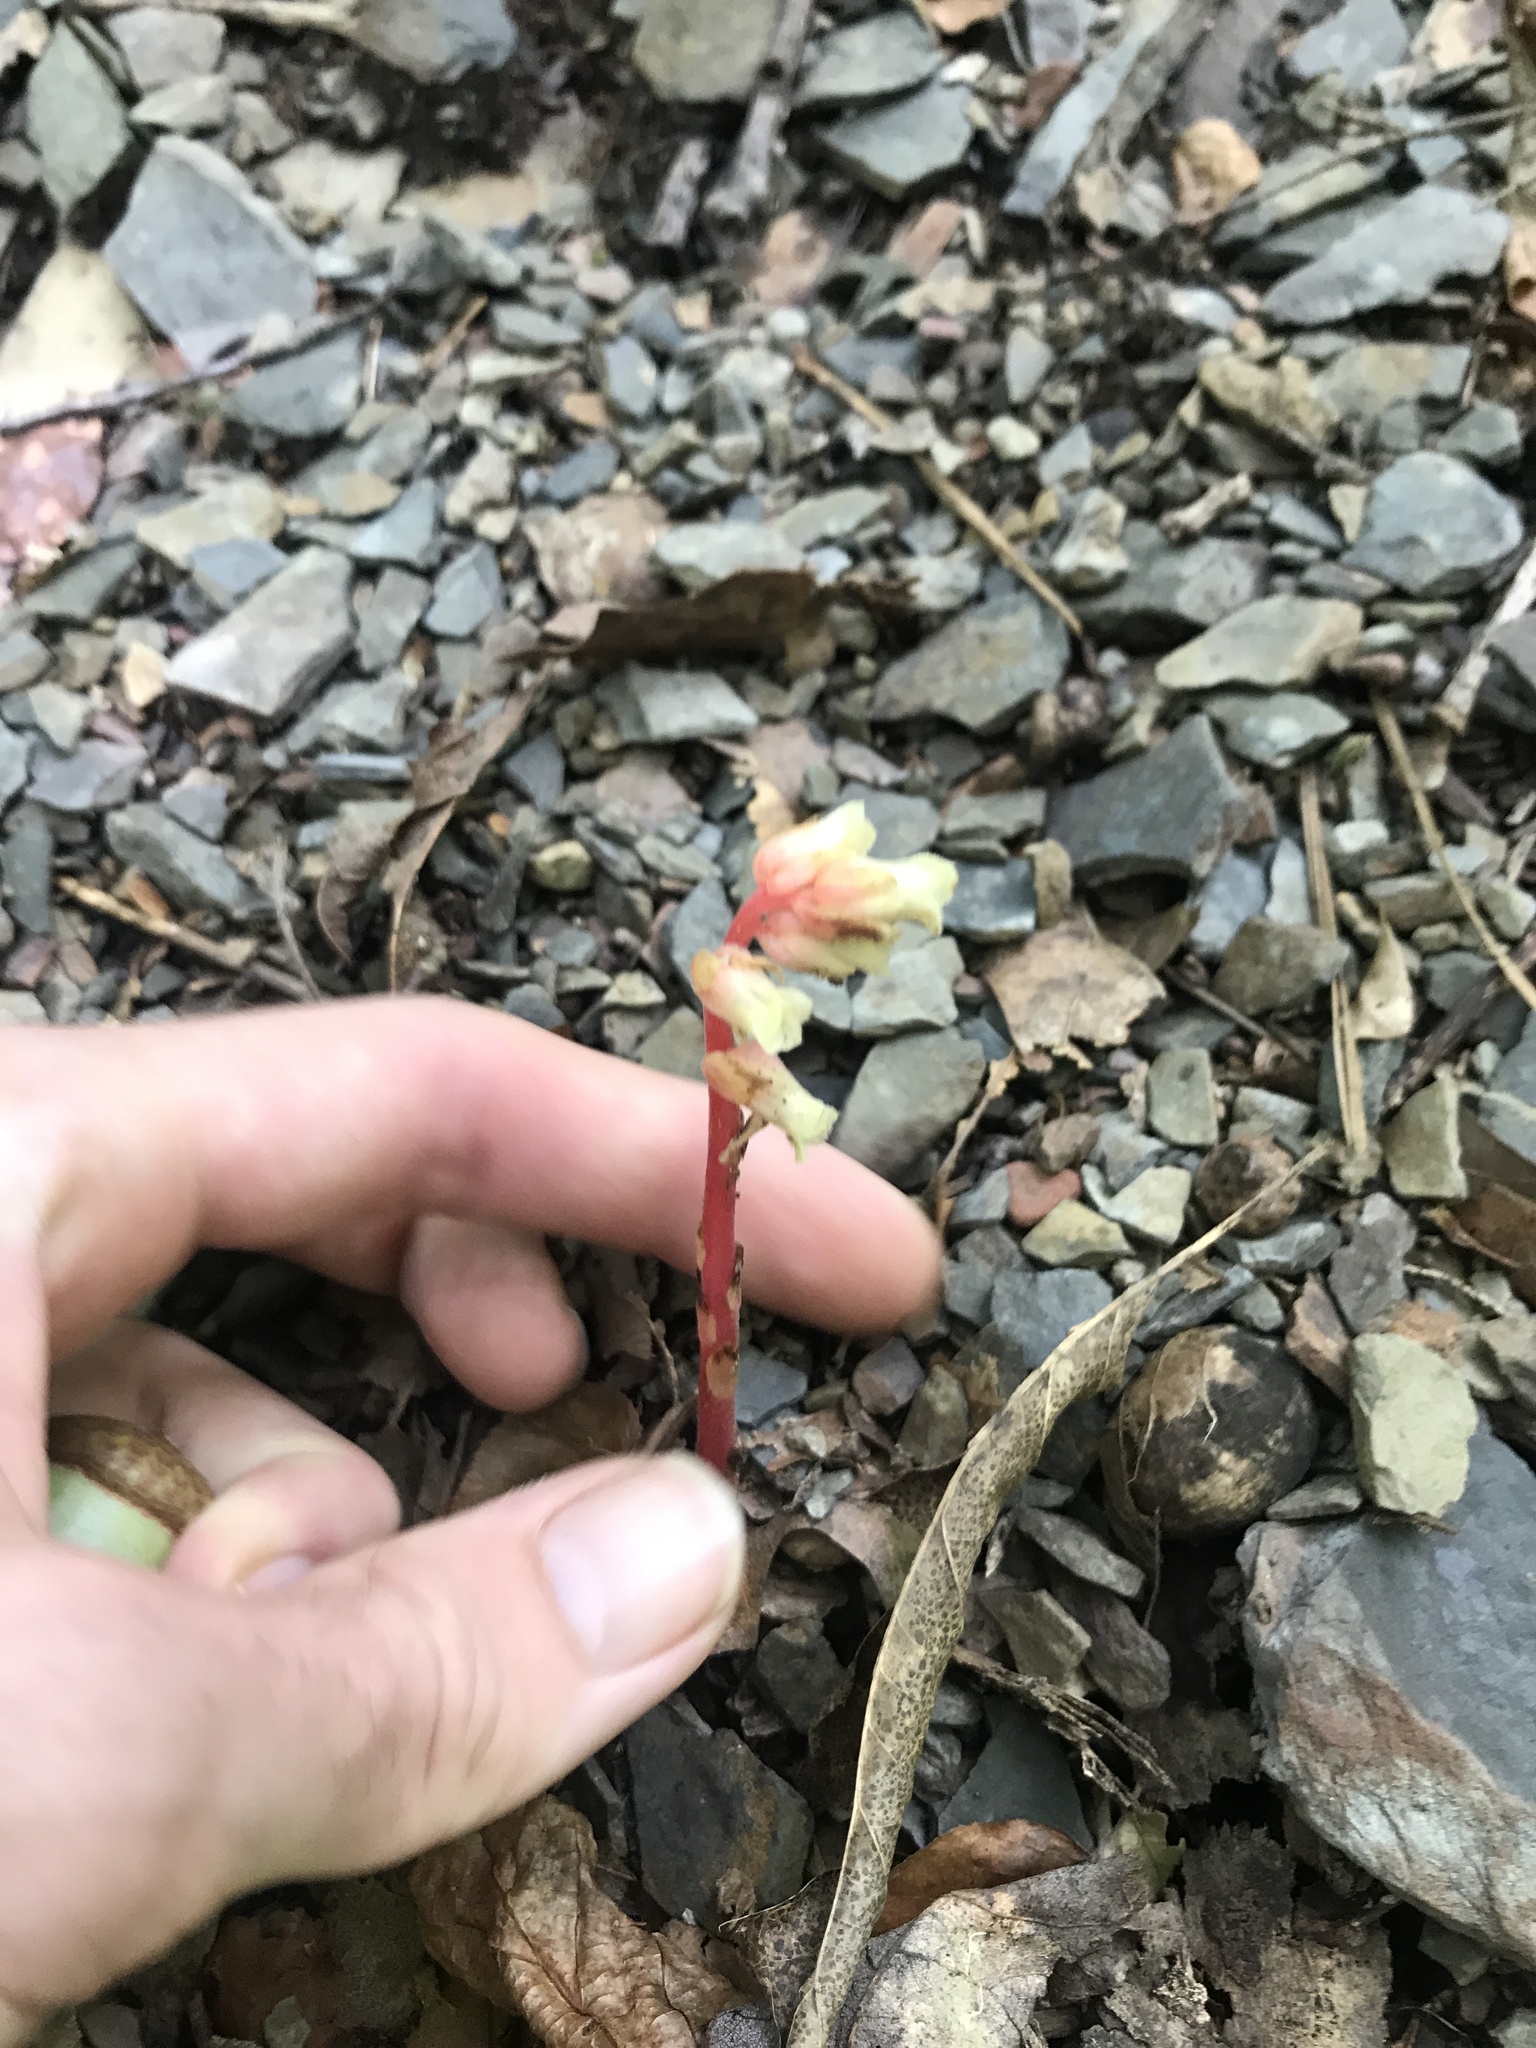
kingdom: Plantae
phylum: Tracheophyta
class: Magnoliopsida
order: Ericales
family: Ericaceae
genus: Hypopitys
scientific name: Hypopitys monotropa
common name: Yellow bird's-nest
